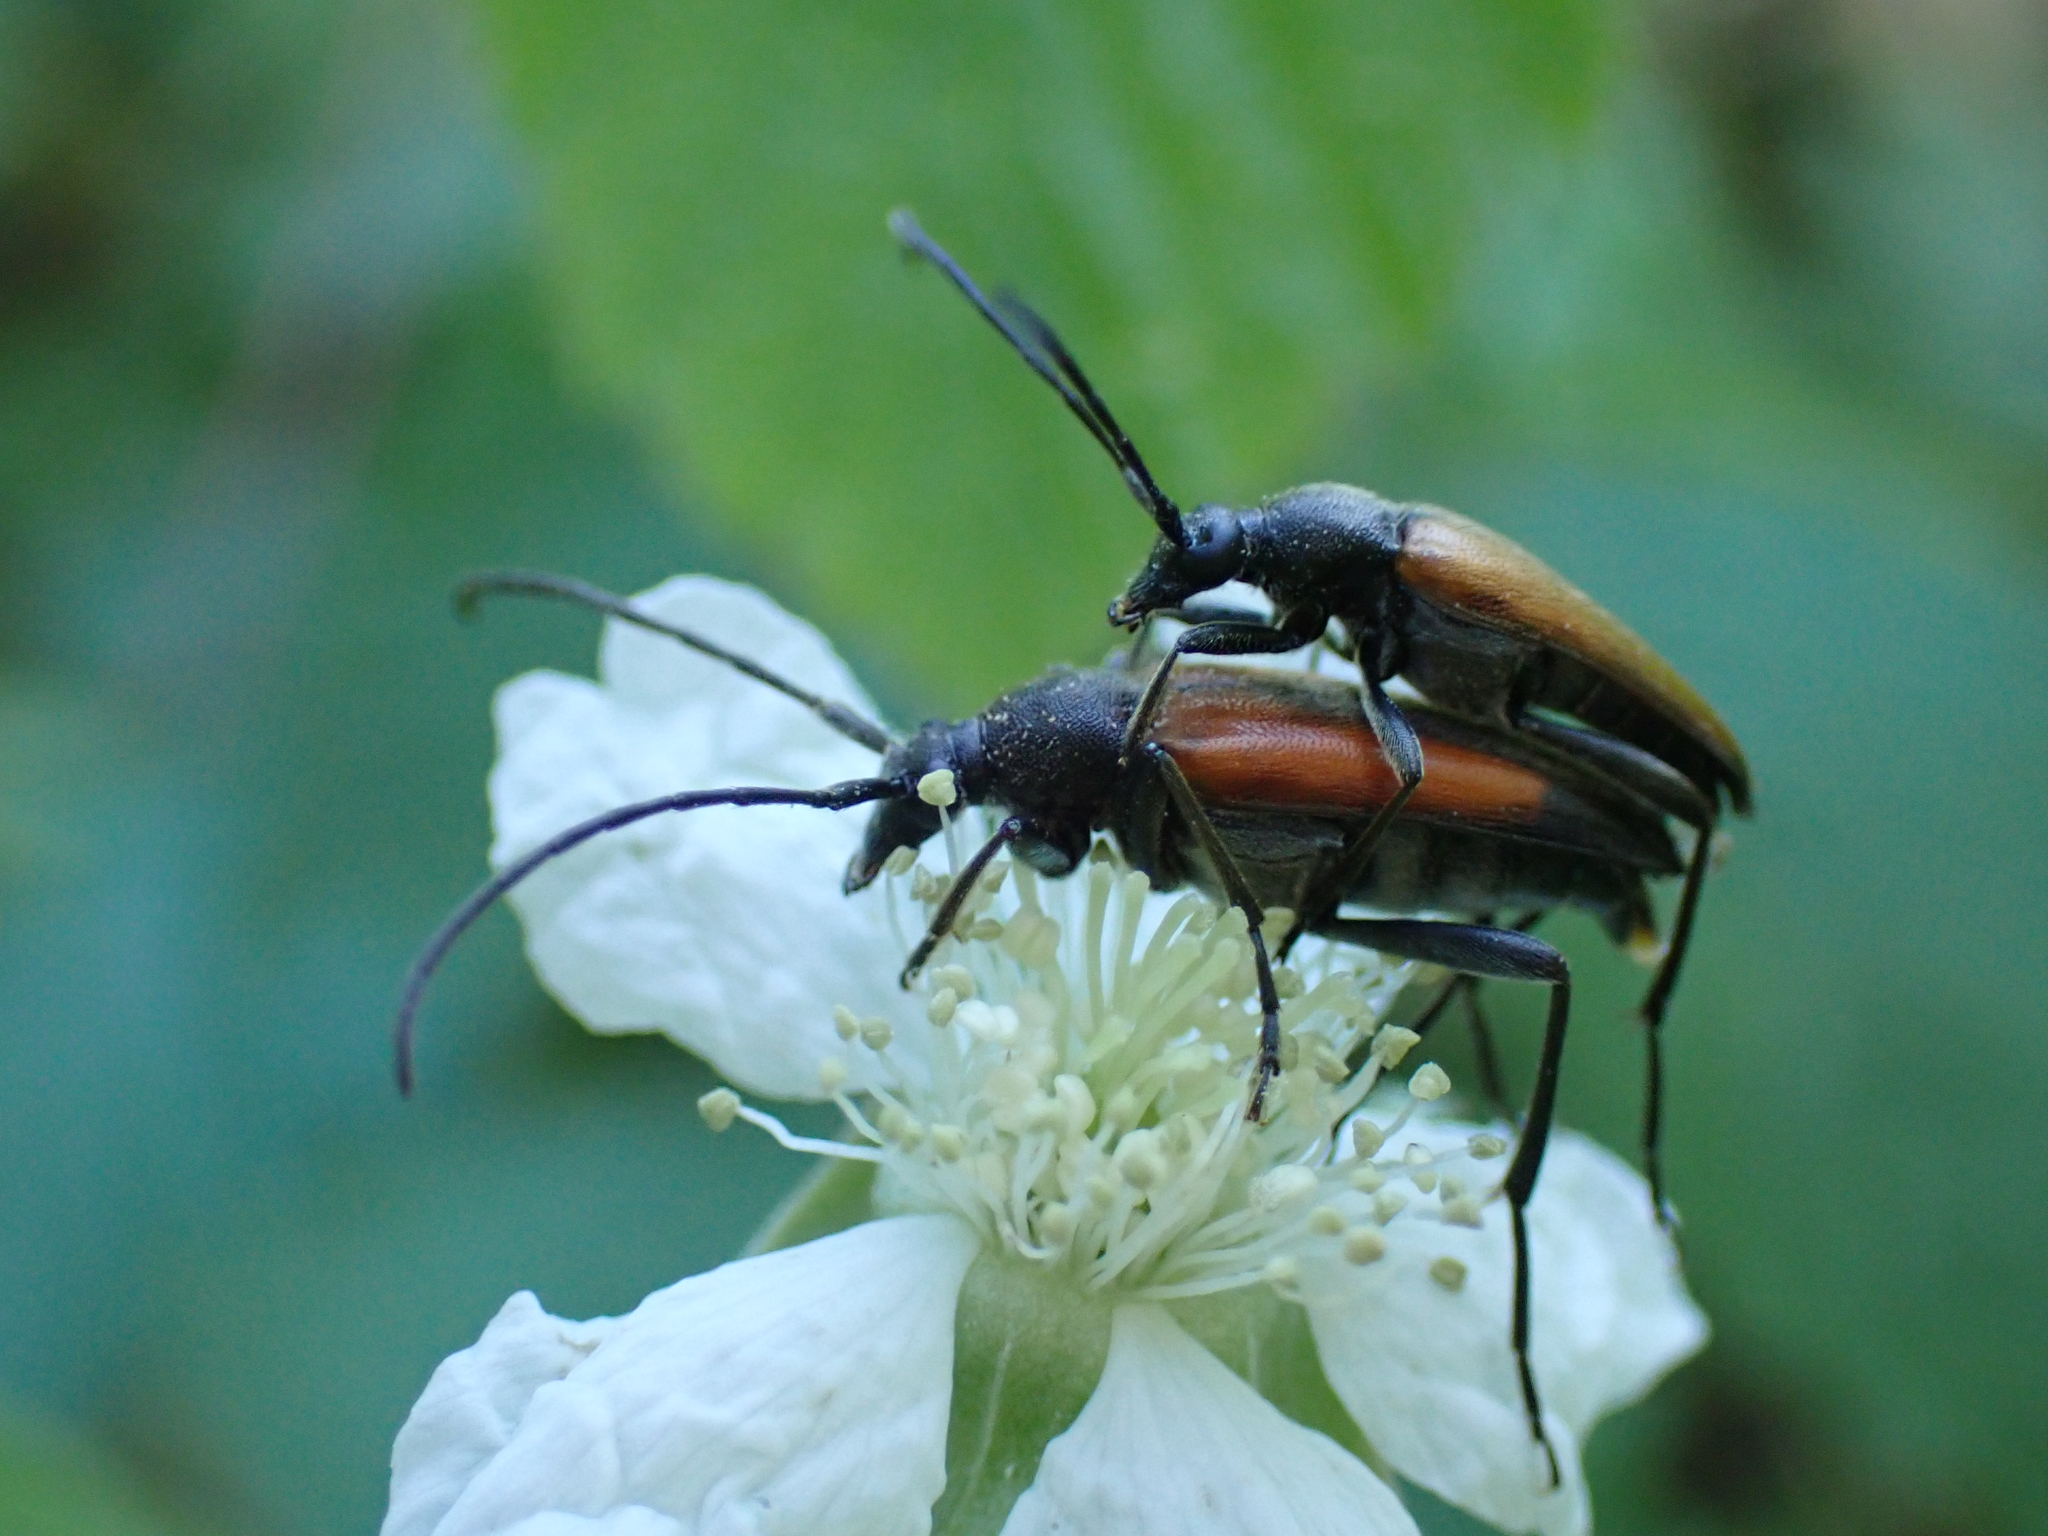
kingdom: Animalia
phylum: Arthropoda
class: Insecta
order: Coleoptera
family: Cerambycidae
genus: Stenurella
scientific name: Stenurella melanura
